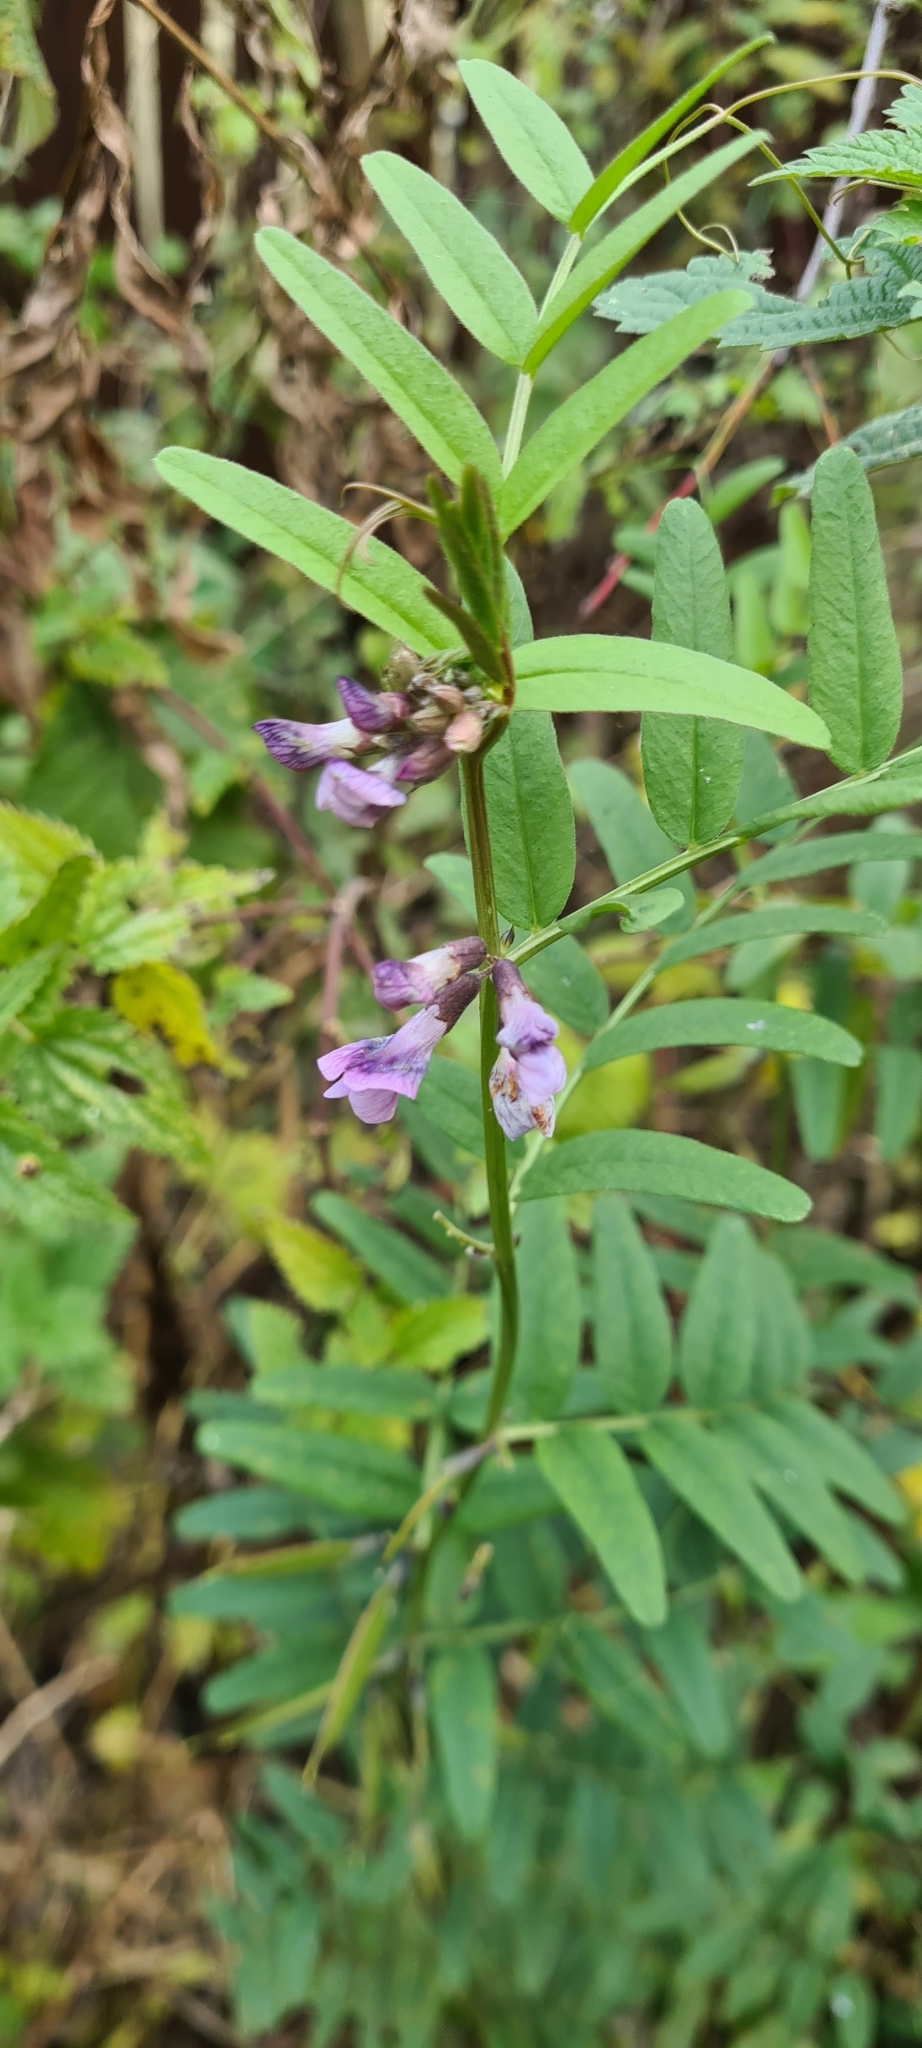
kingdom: Plantae
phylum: Tracheophyta
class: Magnoliopsida
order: Fabales
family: Fabaceae
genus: Vicia
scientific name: Vicia sepium
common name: Bush vetch
